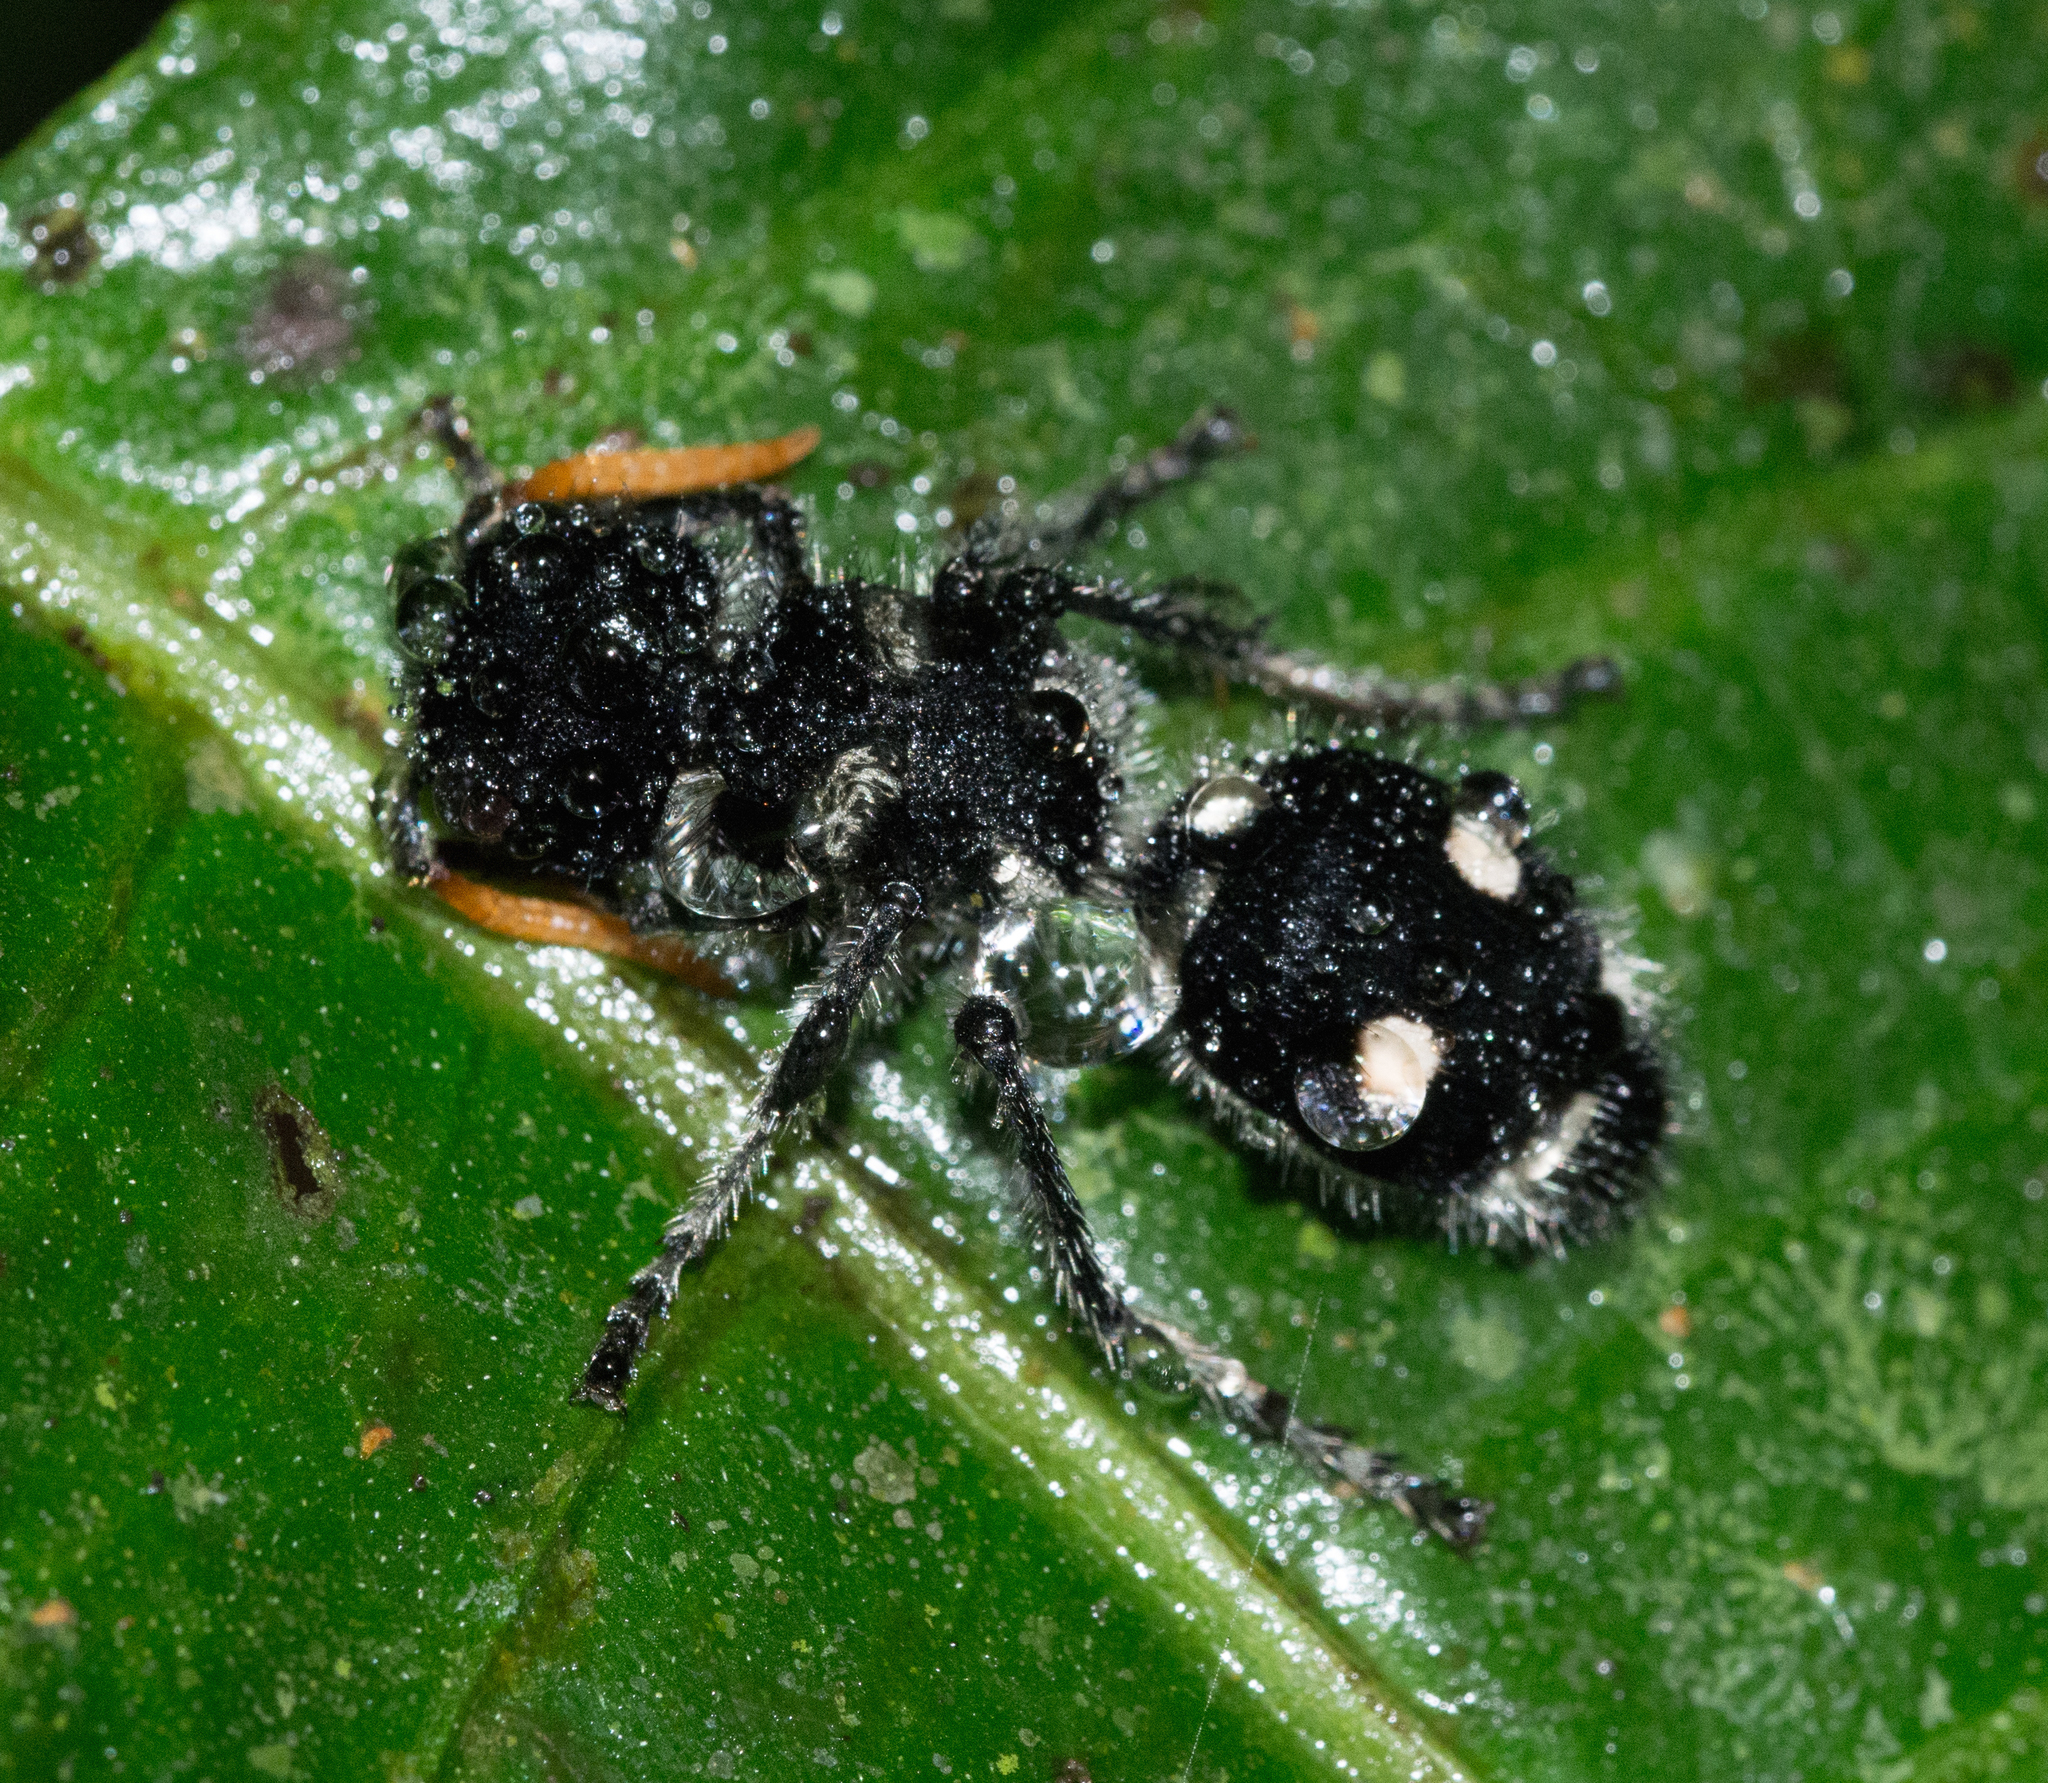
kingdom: Animalia
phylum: Arthropoda
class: Insecta
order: Hymenoptera
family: Mutillidae
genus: Hoplomutilla
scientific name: Hoplomutilla
